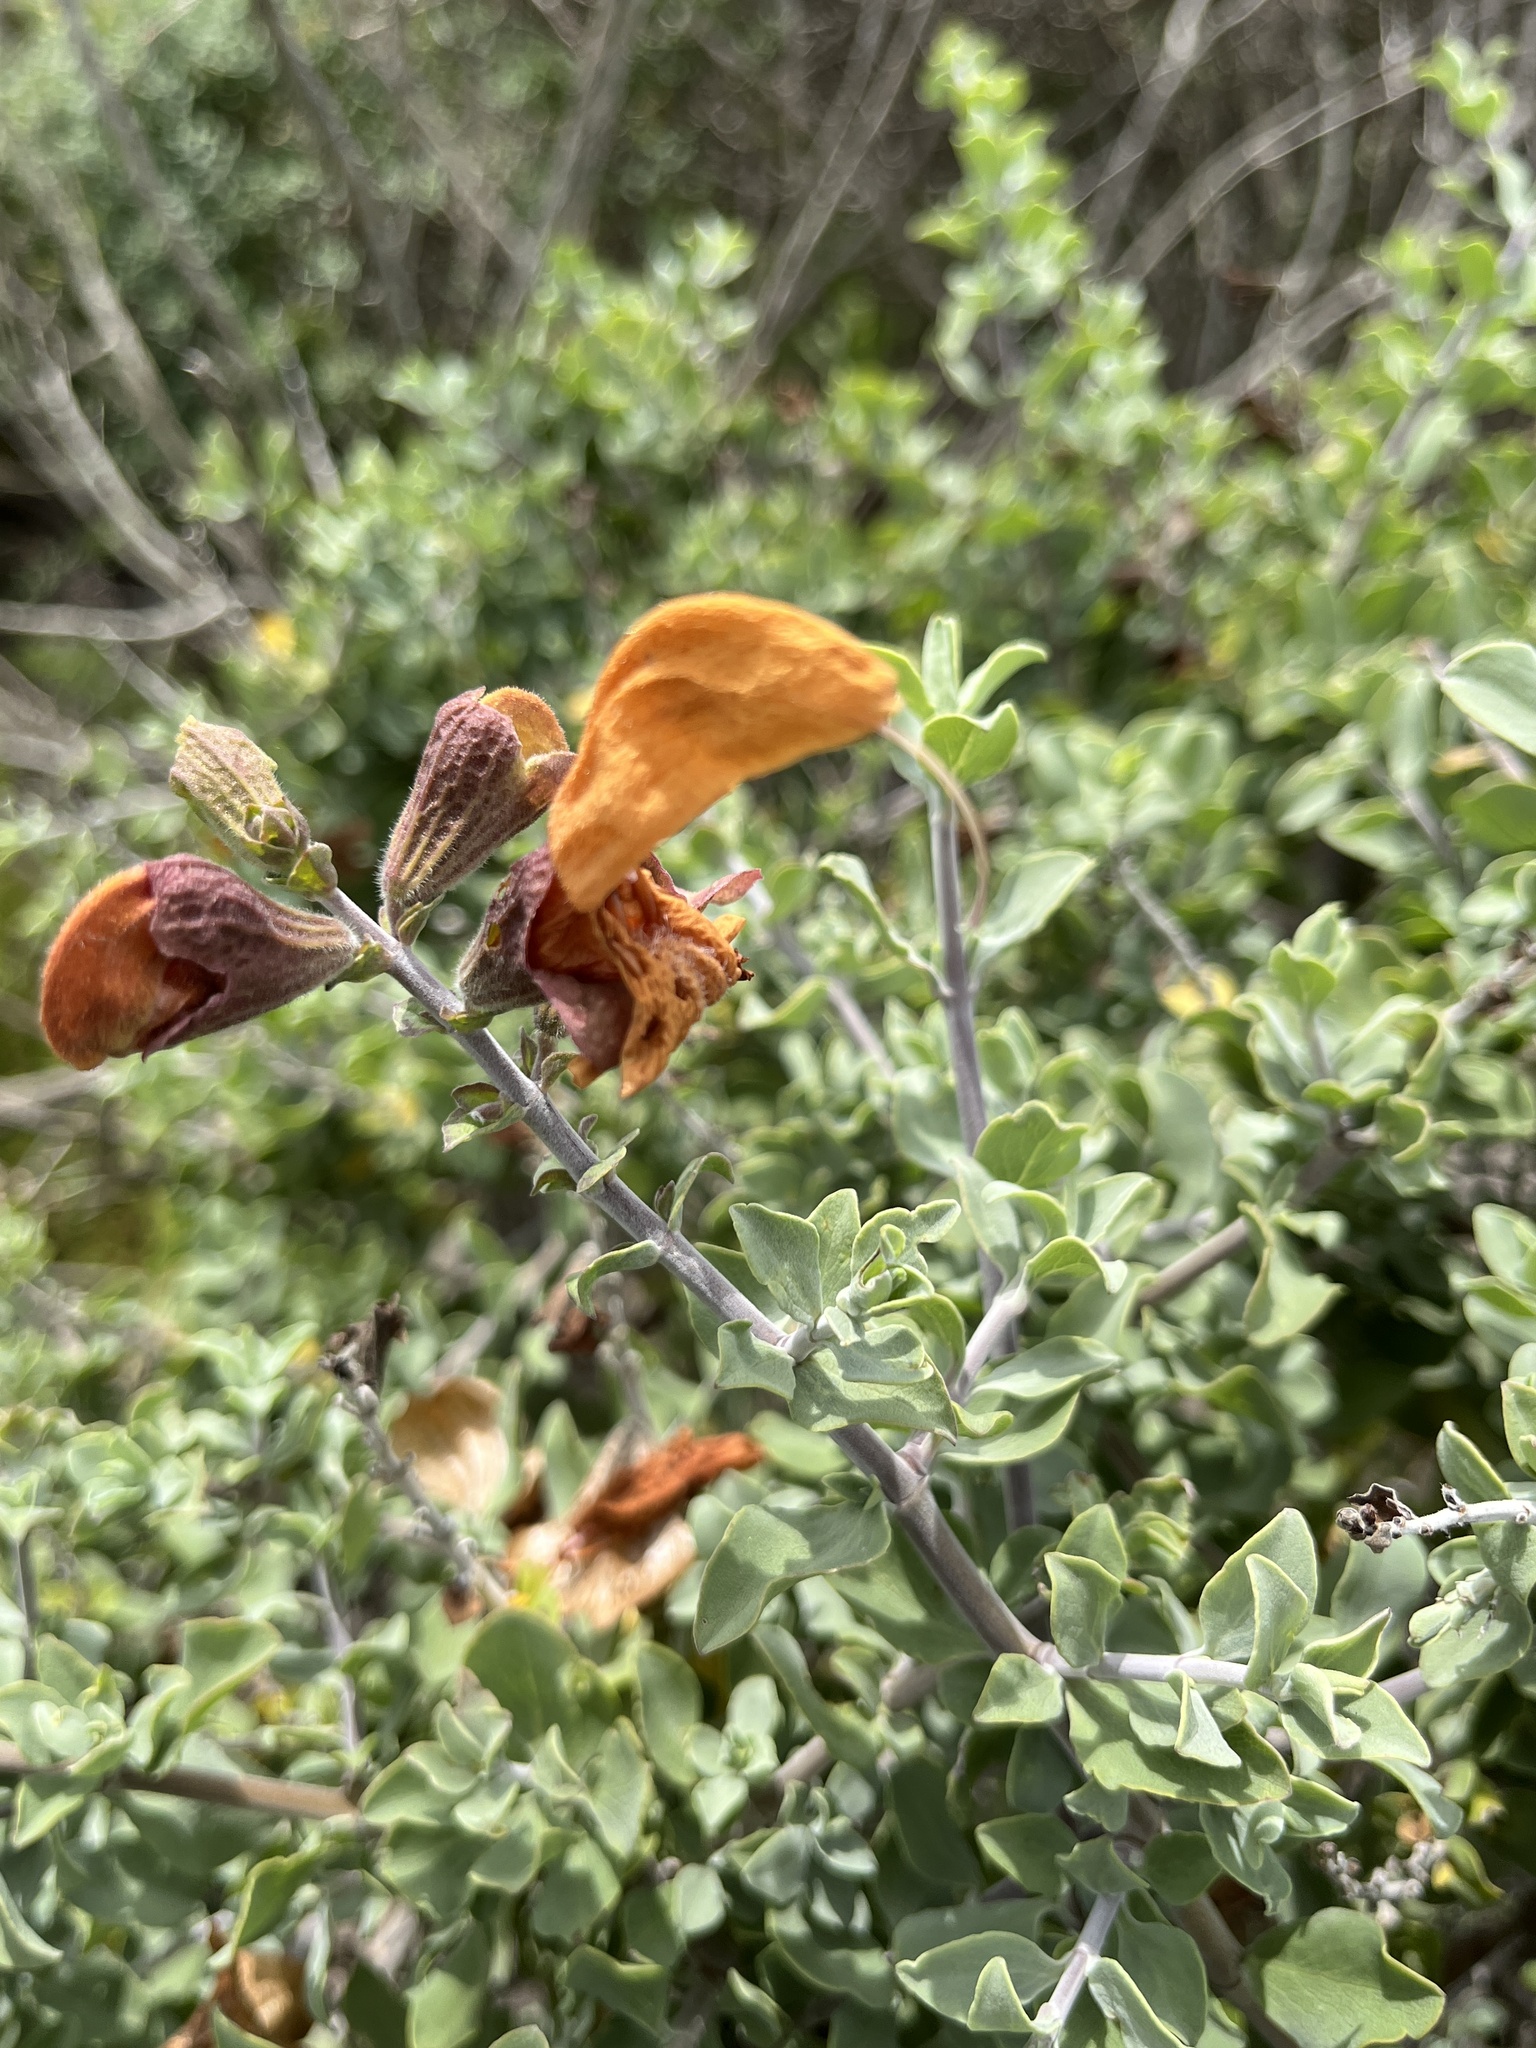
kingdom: Plantae
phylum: Tracheophyta
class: Magnoliopsida
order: Lamiales
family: Lamiaceae
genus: Salvia
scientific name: Salvia aurea
